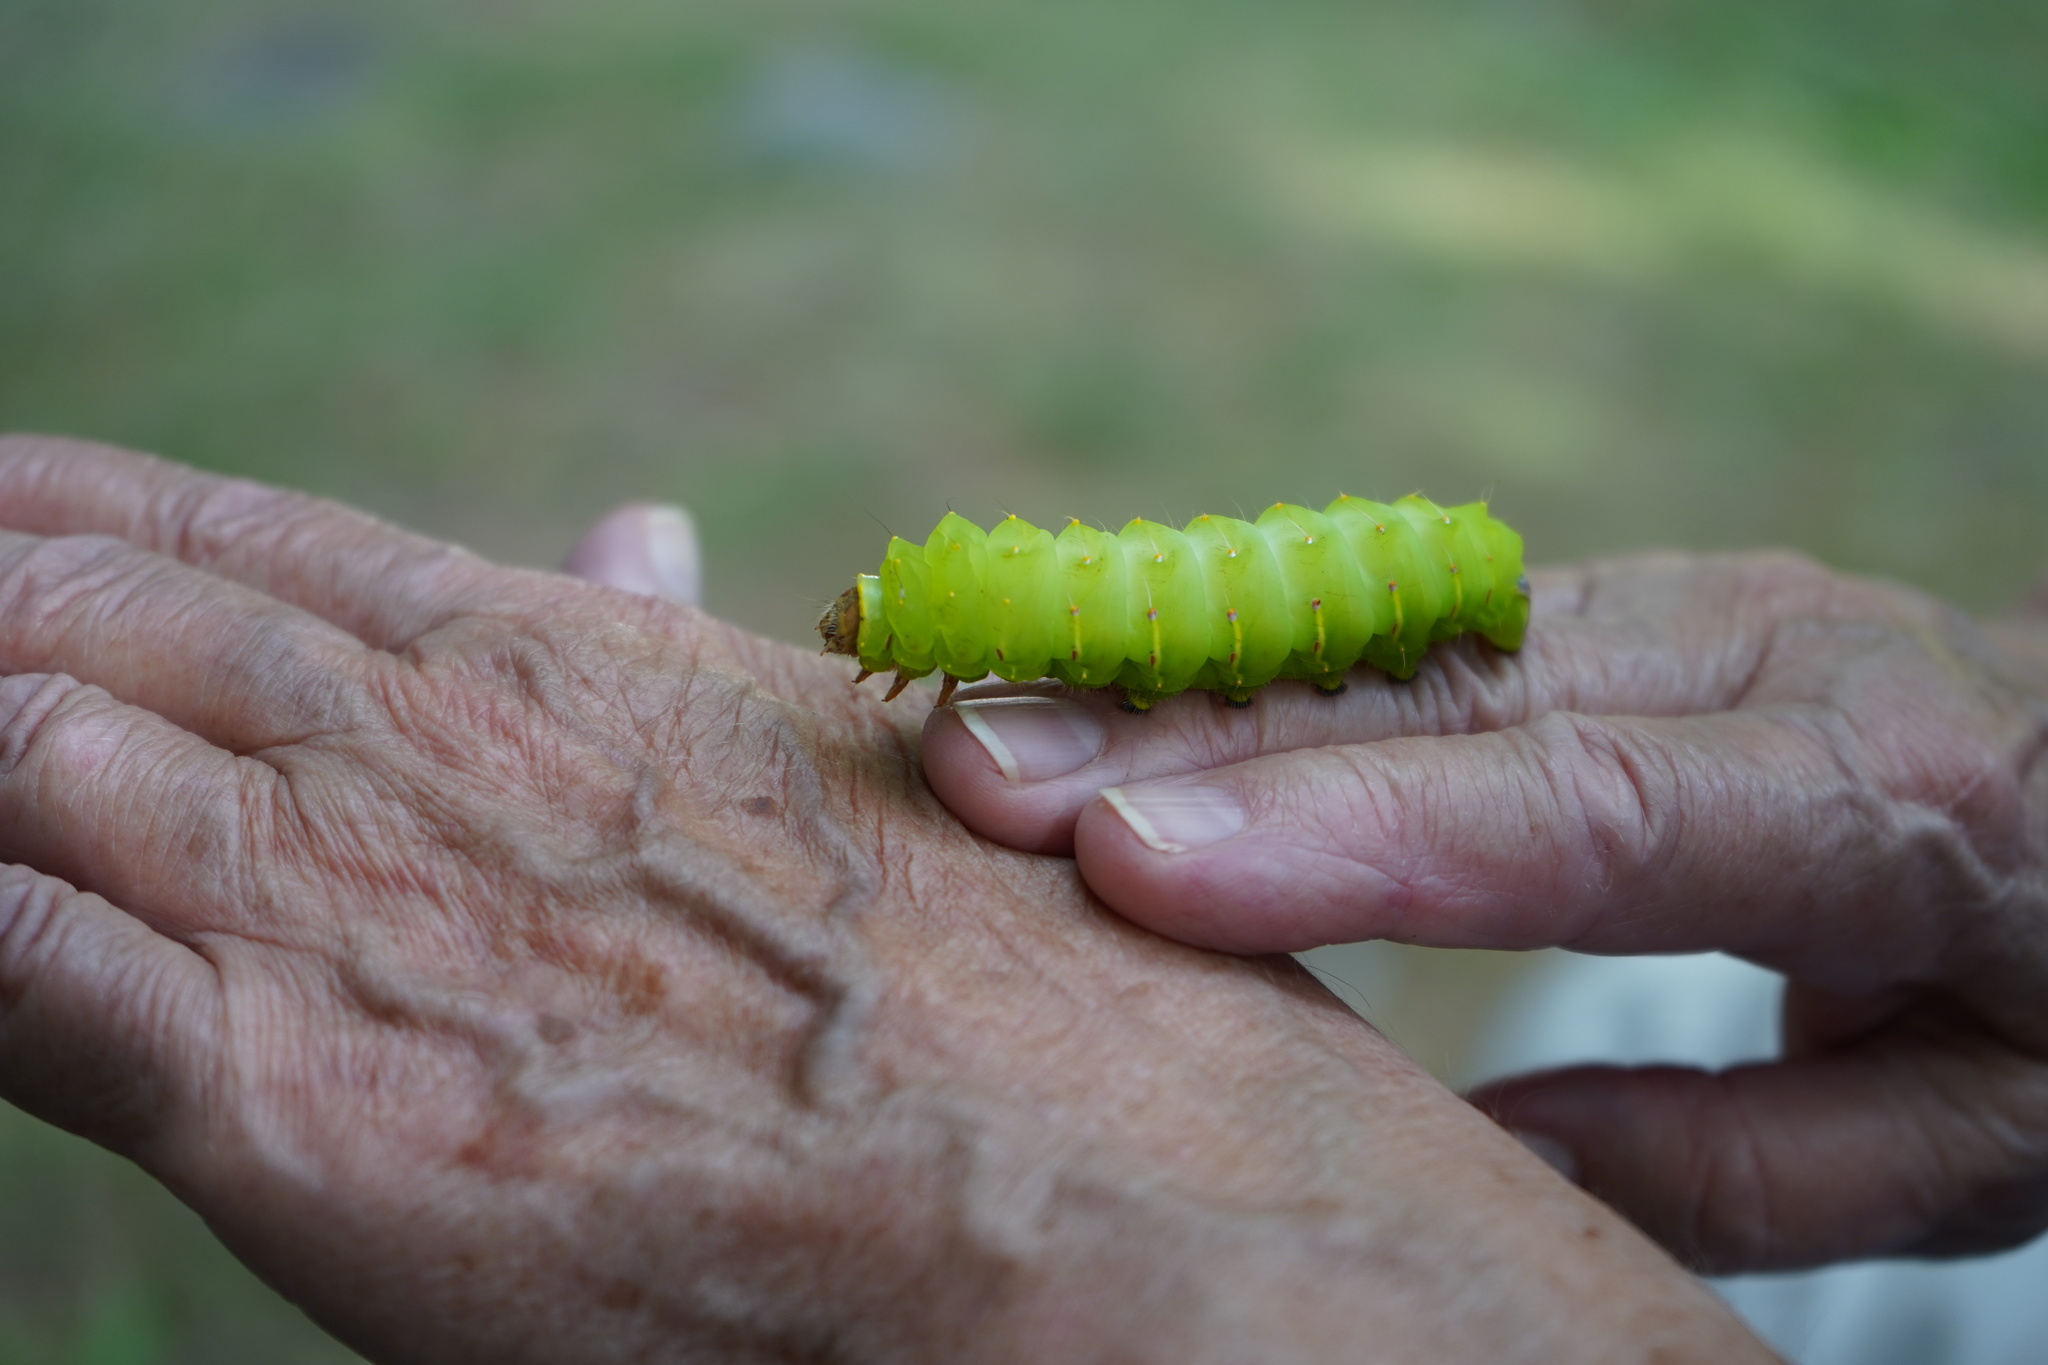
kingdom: Animalia
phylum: Arthropoda
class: Insecta
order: Lepidoptera
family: Saturniidae
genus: Antheraea
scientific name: Antheraea polyphemus
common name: Polyphemus moth
